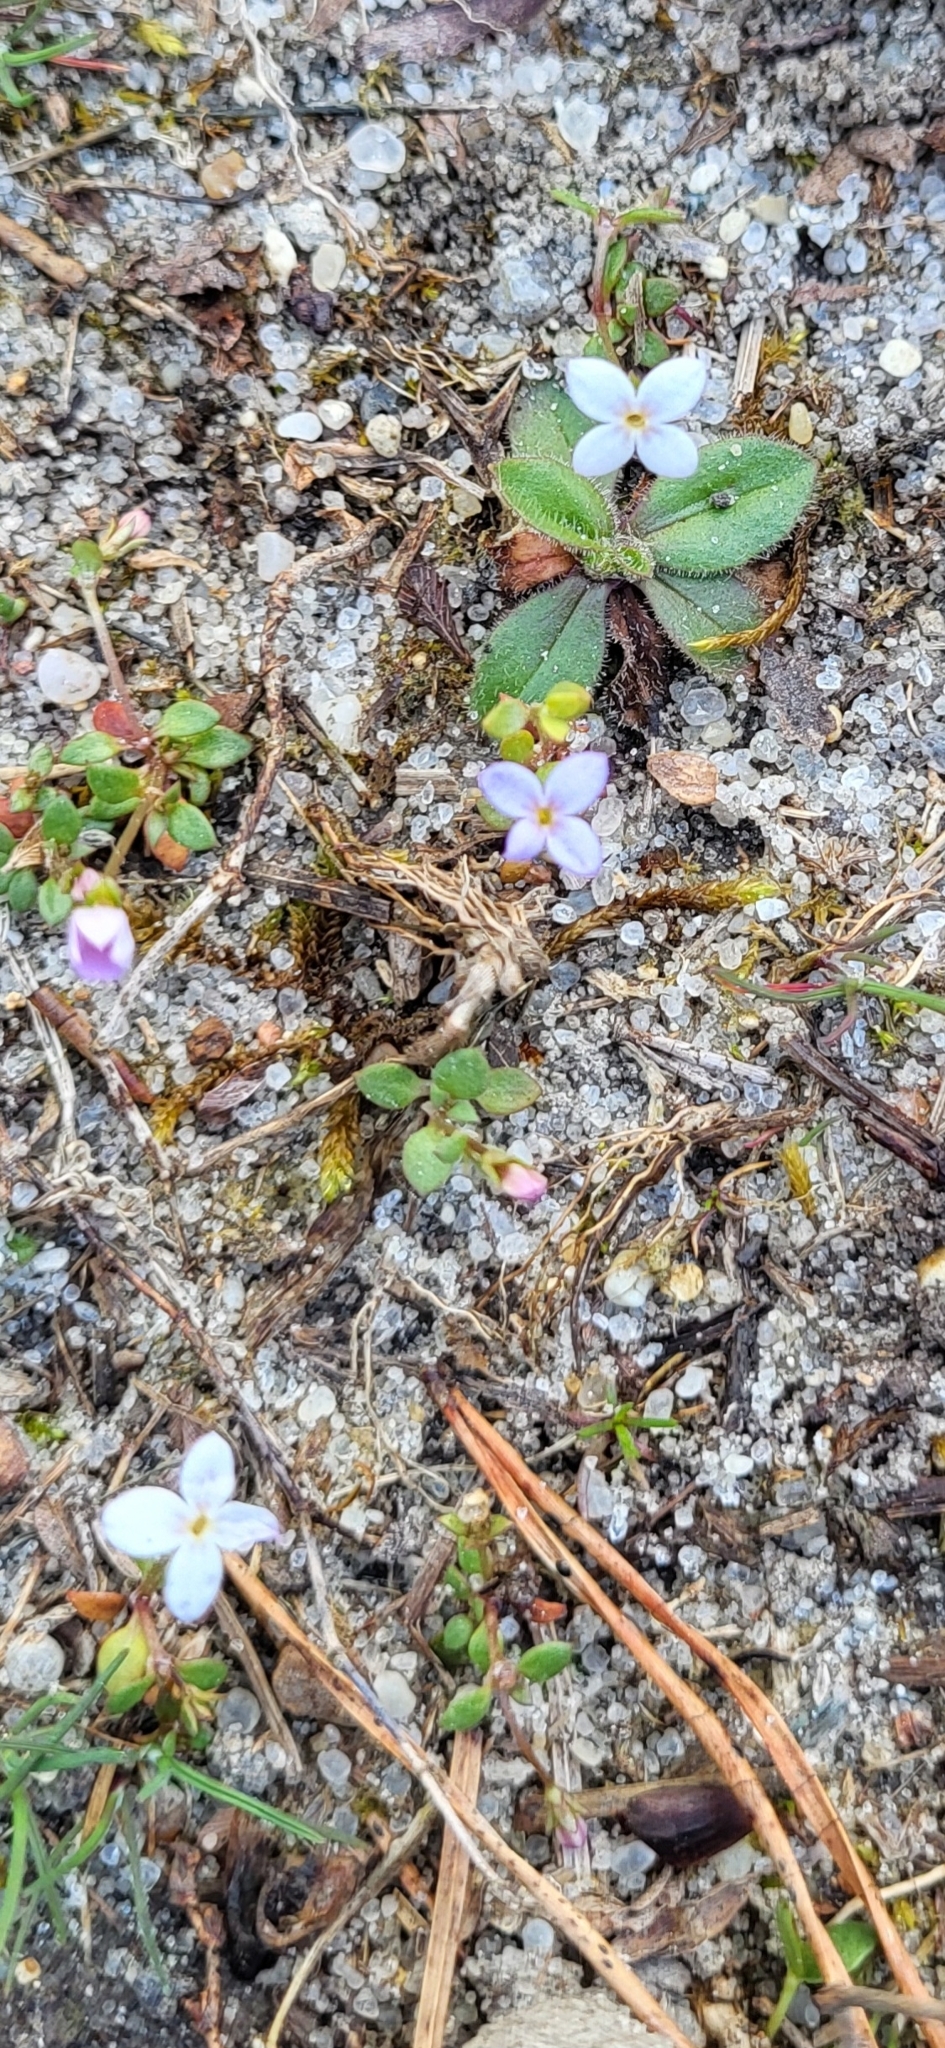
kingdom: Plantae
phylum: Tracheophyta
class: Magnoliopsida
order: Gentianales
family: Rubiaceae
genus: Houstonia
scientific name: Houstonia pusilla
